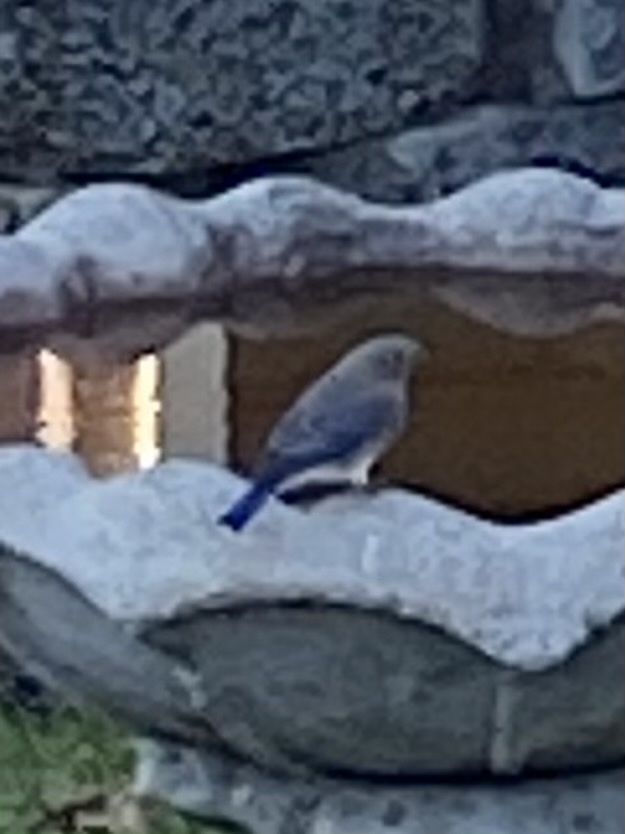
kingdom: Animalia
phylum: Chordata
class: Aves
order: Passeriformes
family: Turdidae
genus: Sialia
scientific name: Sialia sialis
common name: Eastern bluebird
